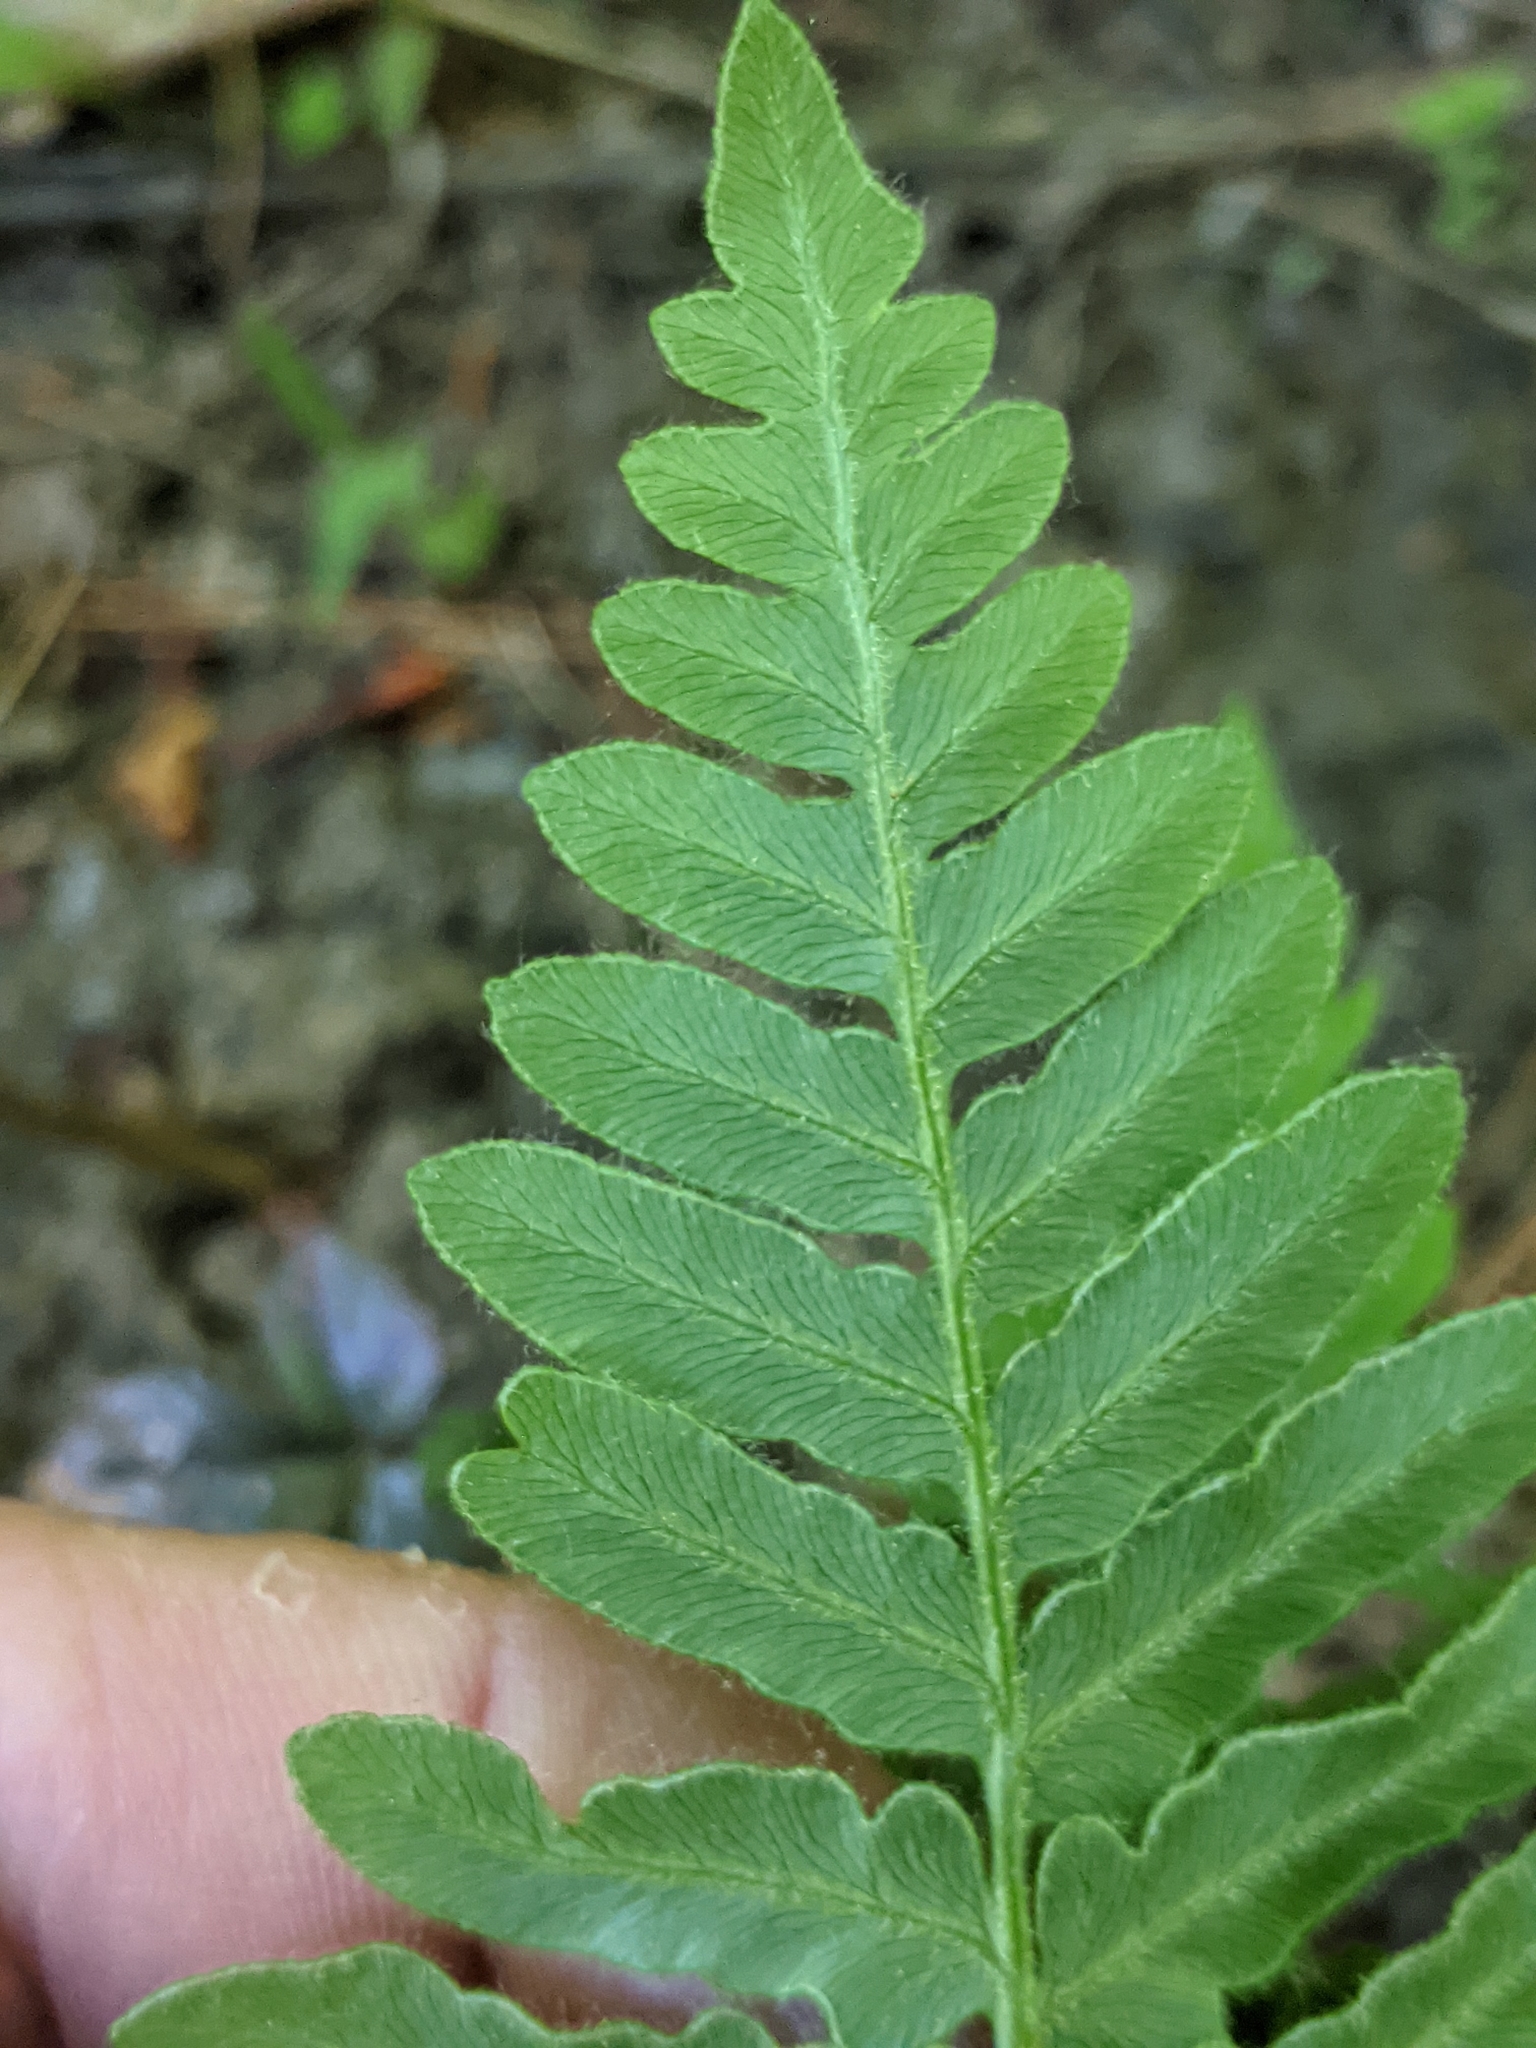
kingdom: Plantae
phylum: Tracheophyta
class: Polypodiopsida
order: Polypodiales
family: Dennstaedtiaceae
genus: Pteridium
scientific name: Pteridium aquilinum
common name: Bracken
